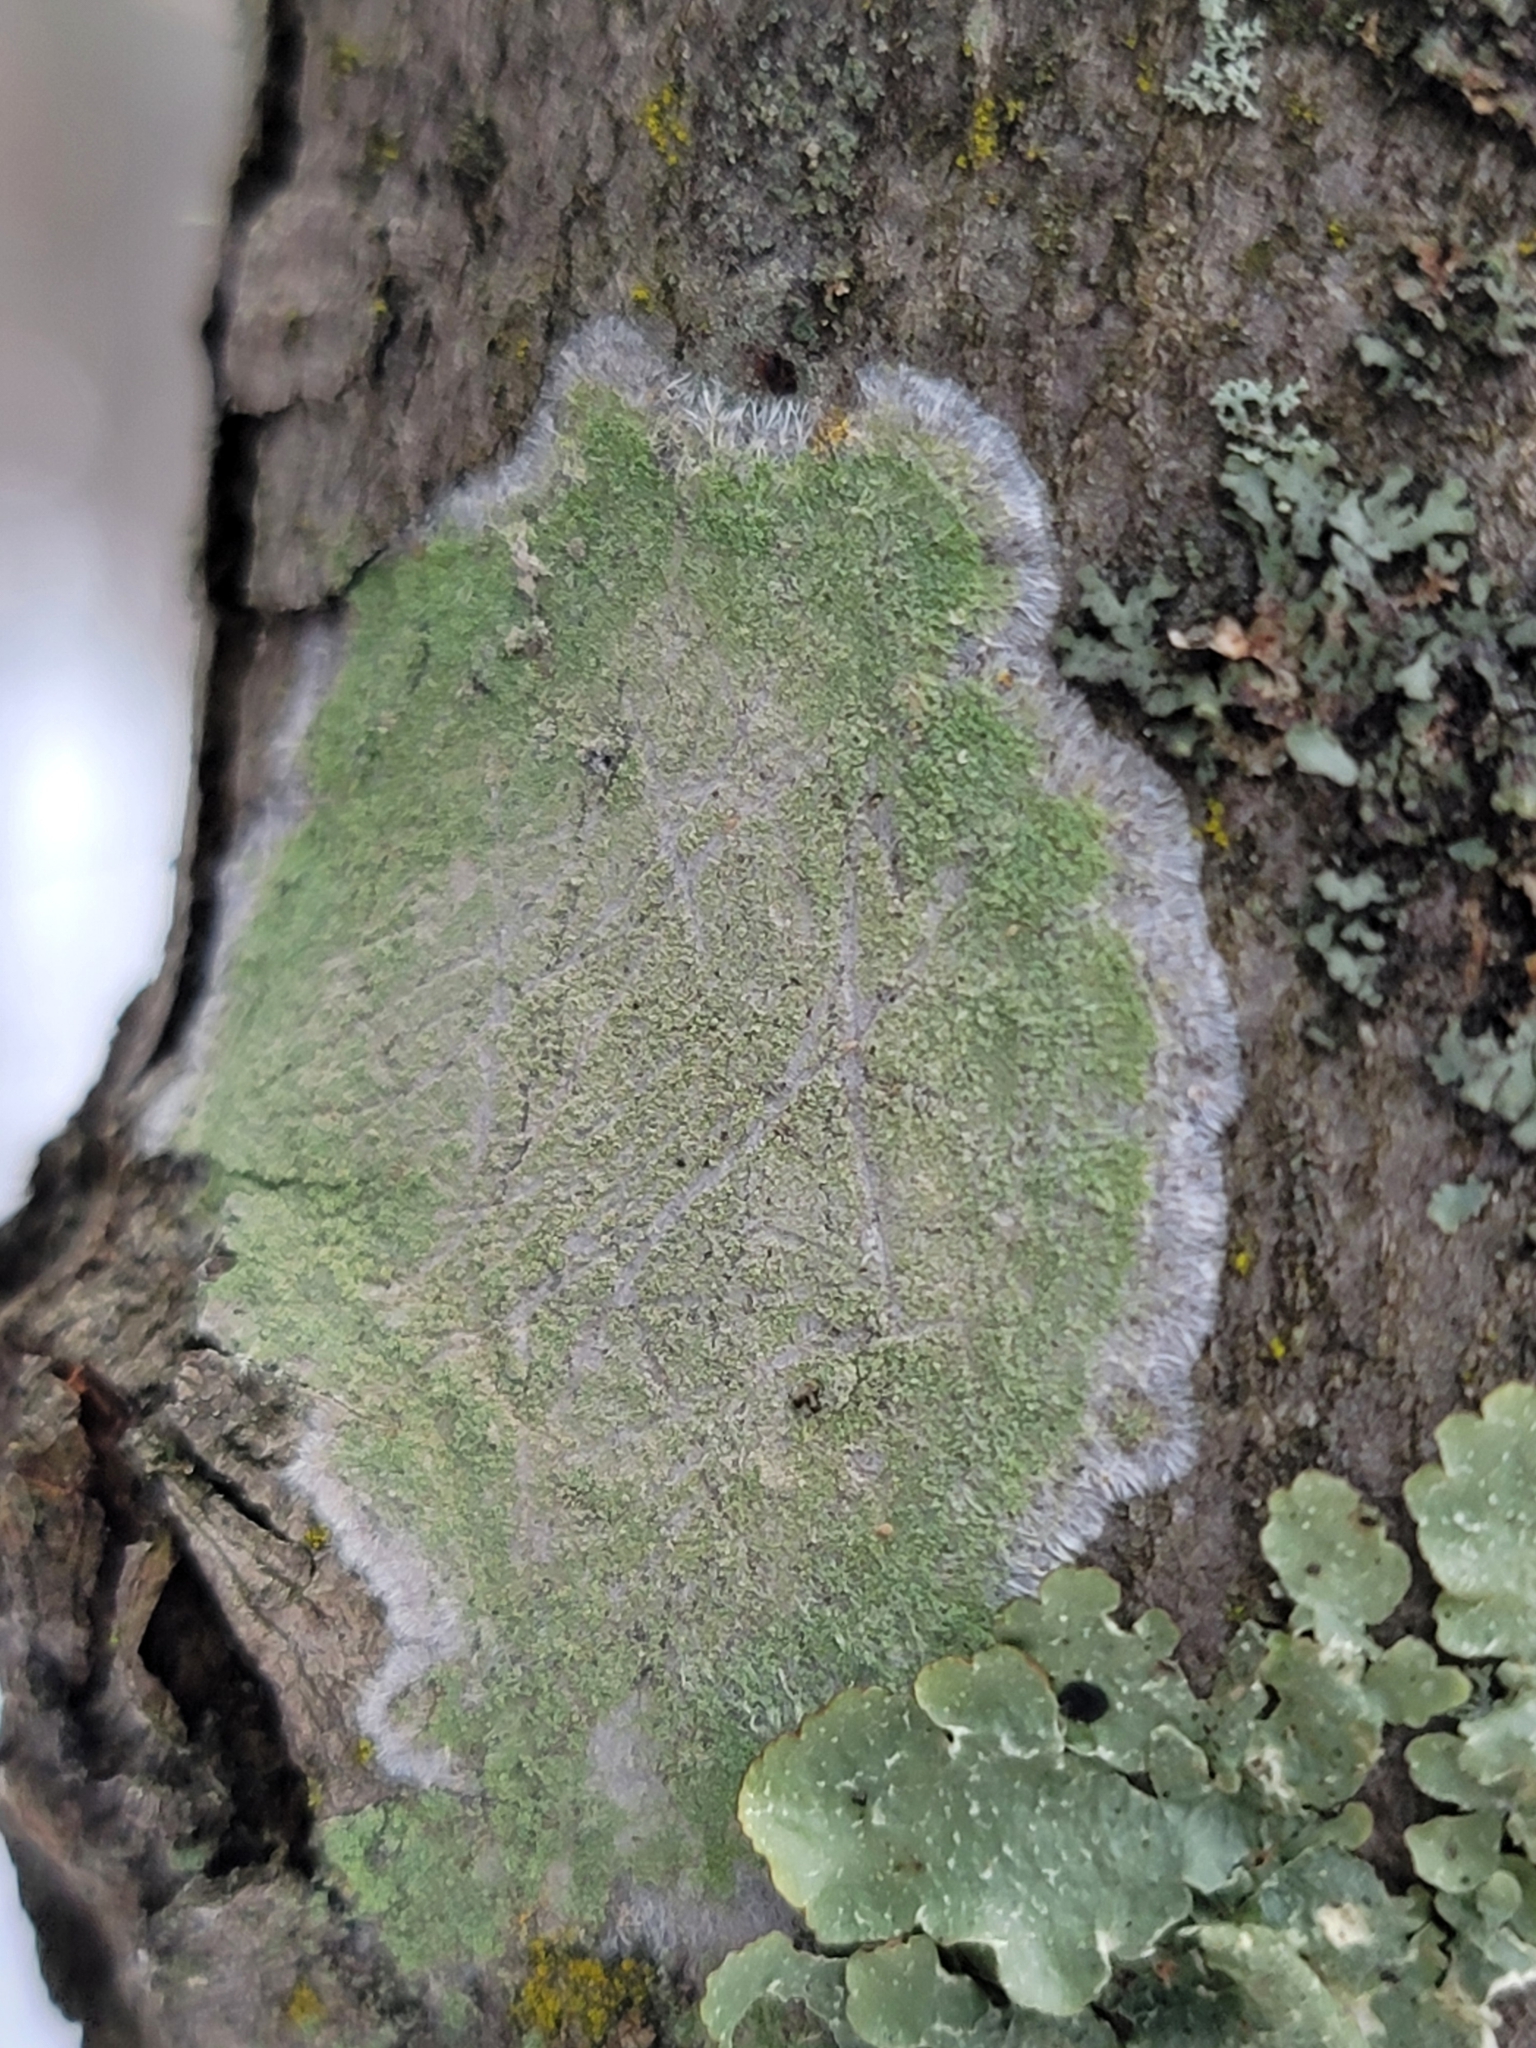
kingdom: Fungi
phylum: Ascomycota
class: Lecanoromycetes
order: Pertusariales
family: Pertusariaceae
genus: Verseghya
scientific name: Verseghya thysanophora
